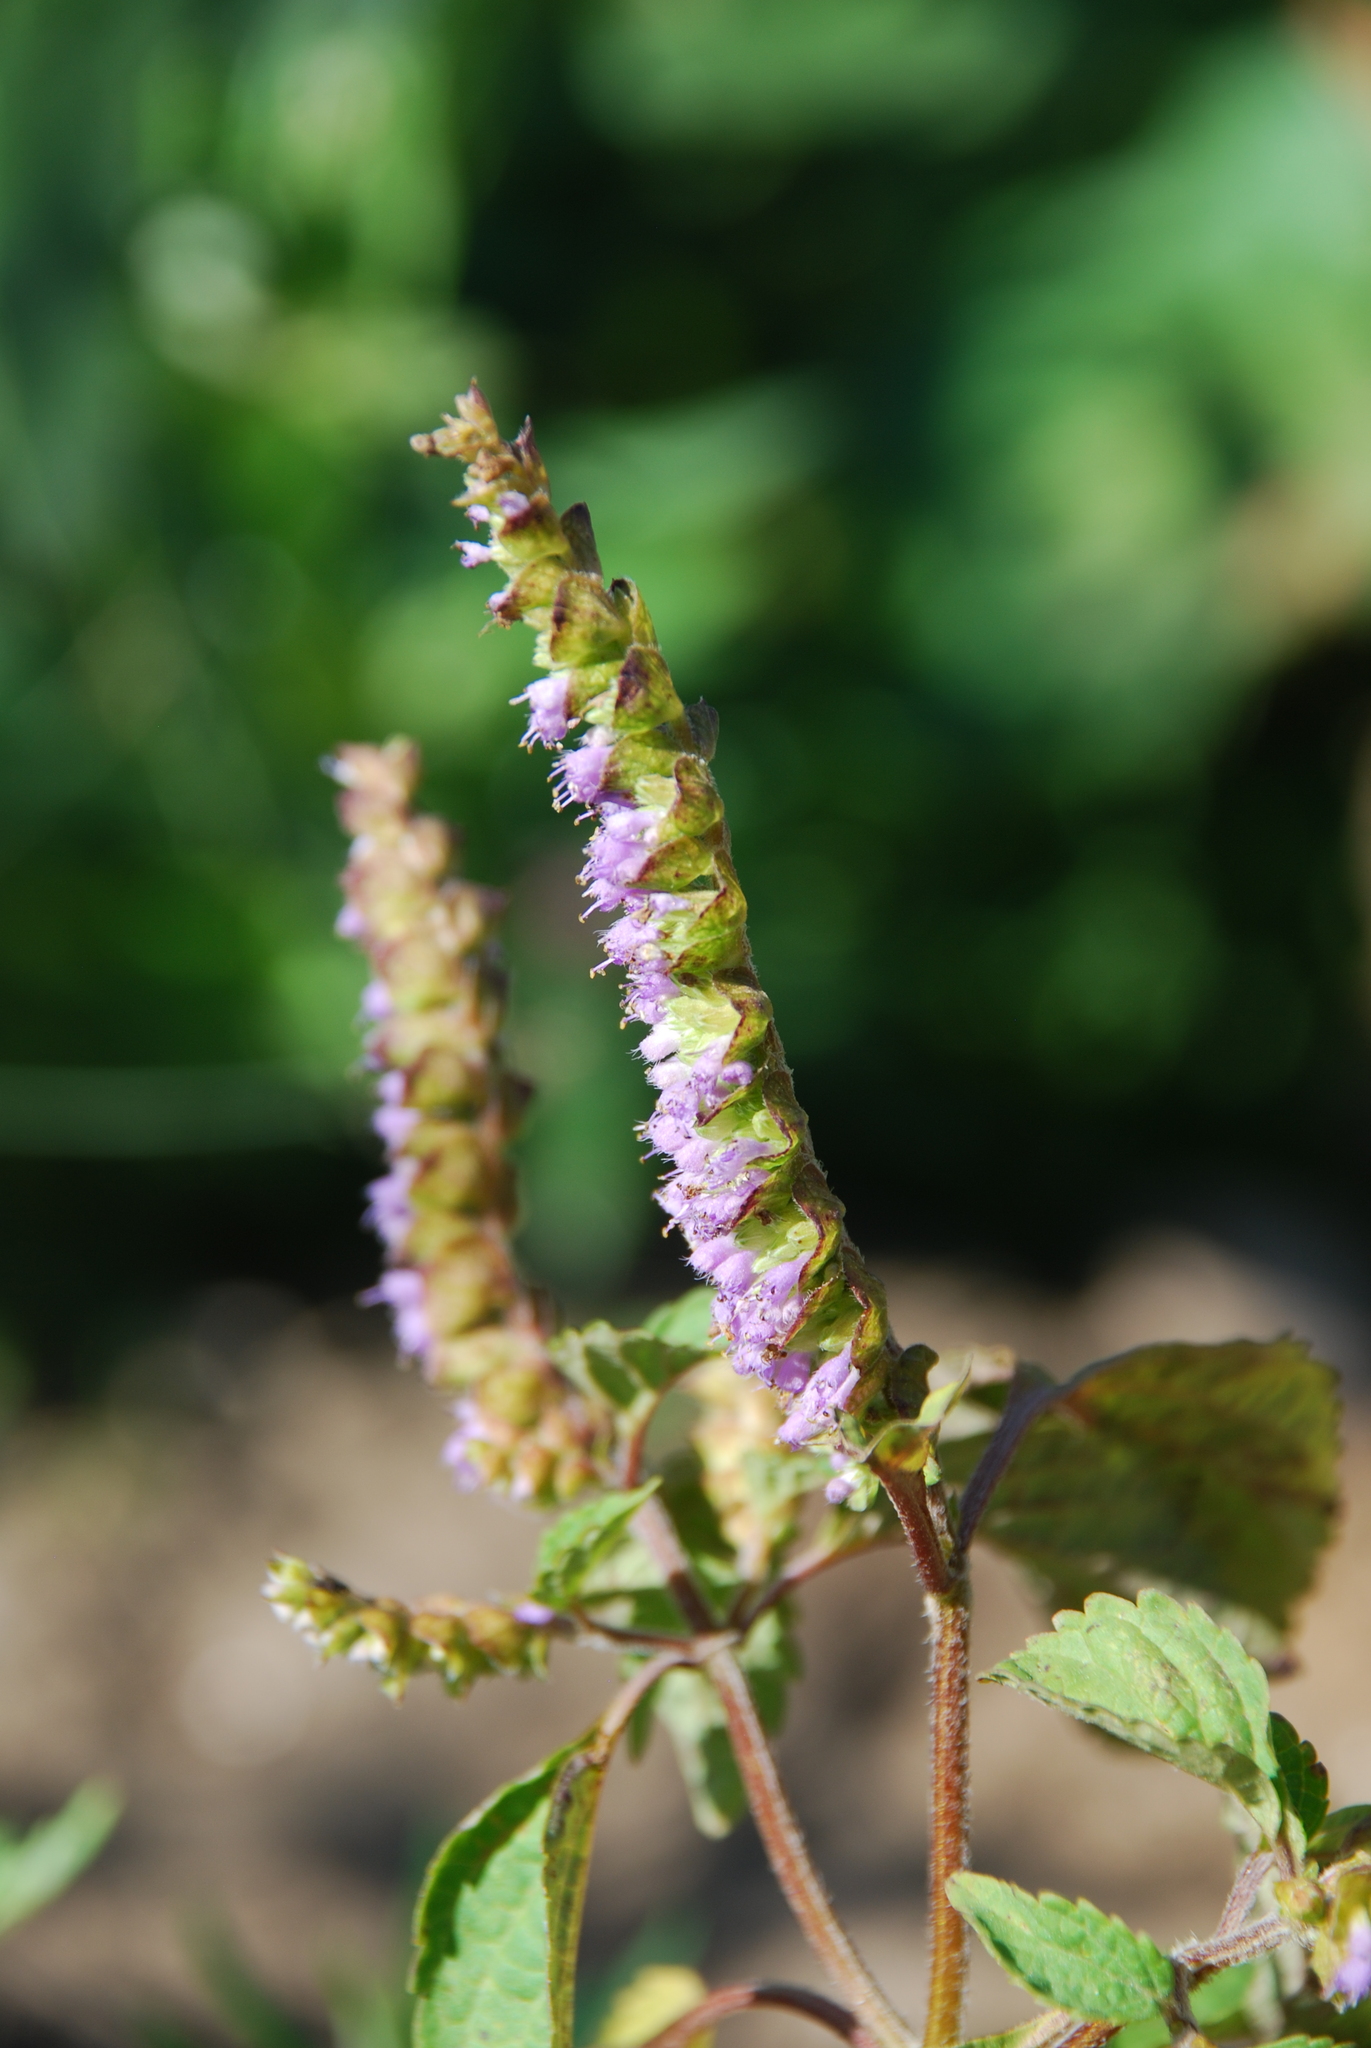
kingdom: Plantae
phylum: Tracheophyta
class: Magnoliopsida
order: Lamiales
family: Lamiaceae
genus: Elsholtzia
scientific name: Elsholtzia ciliata
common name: Ciliate elsholtzia
